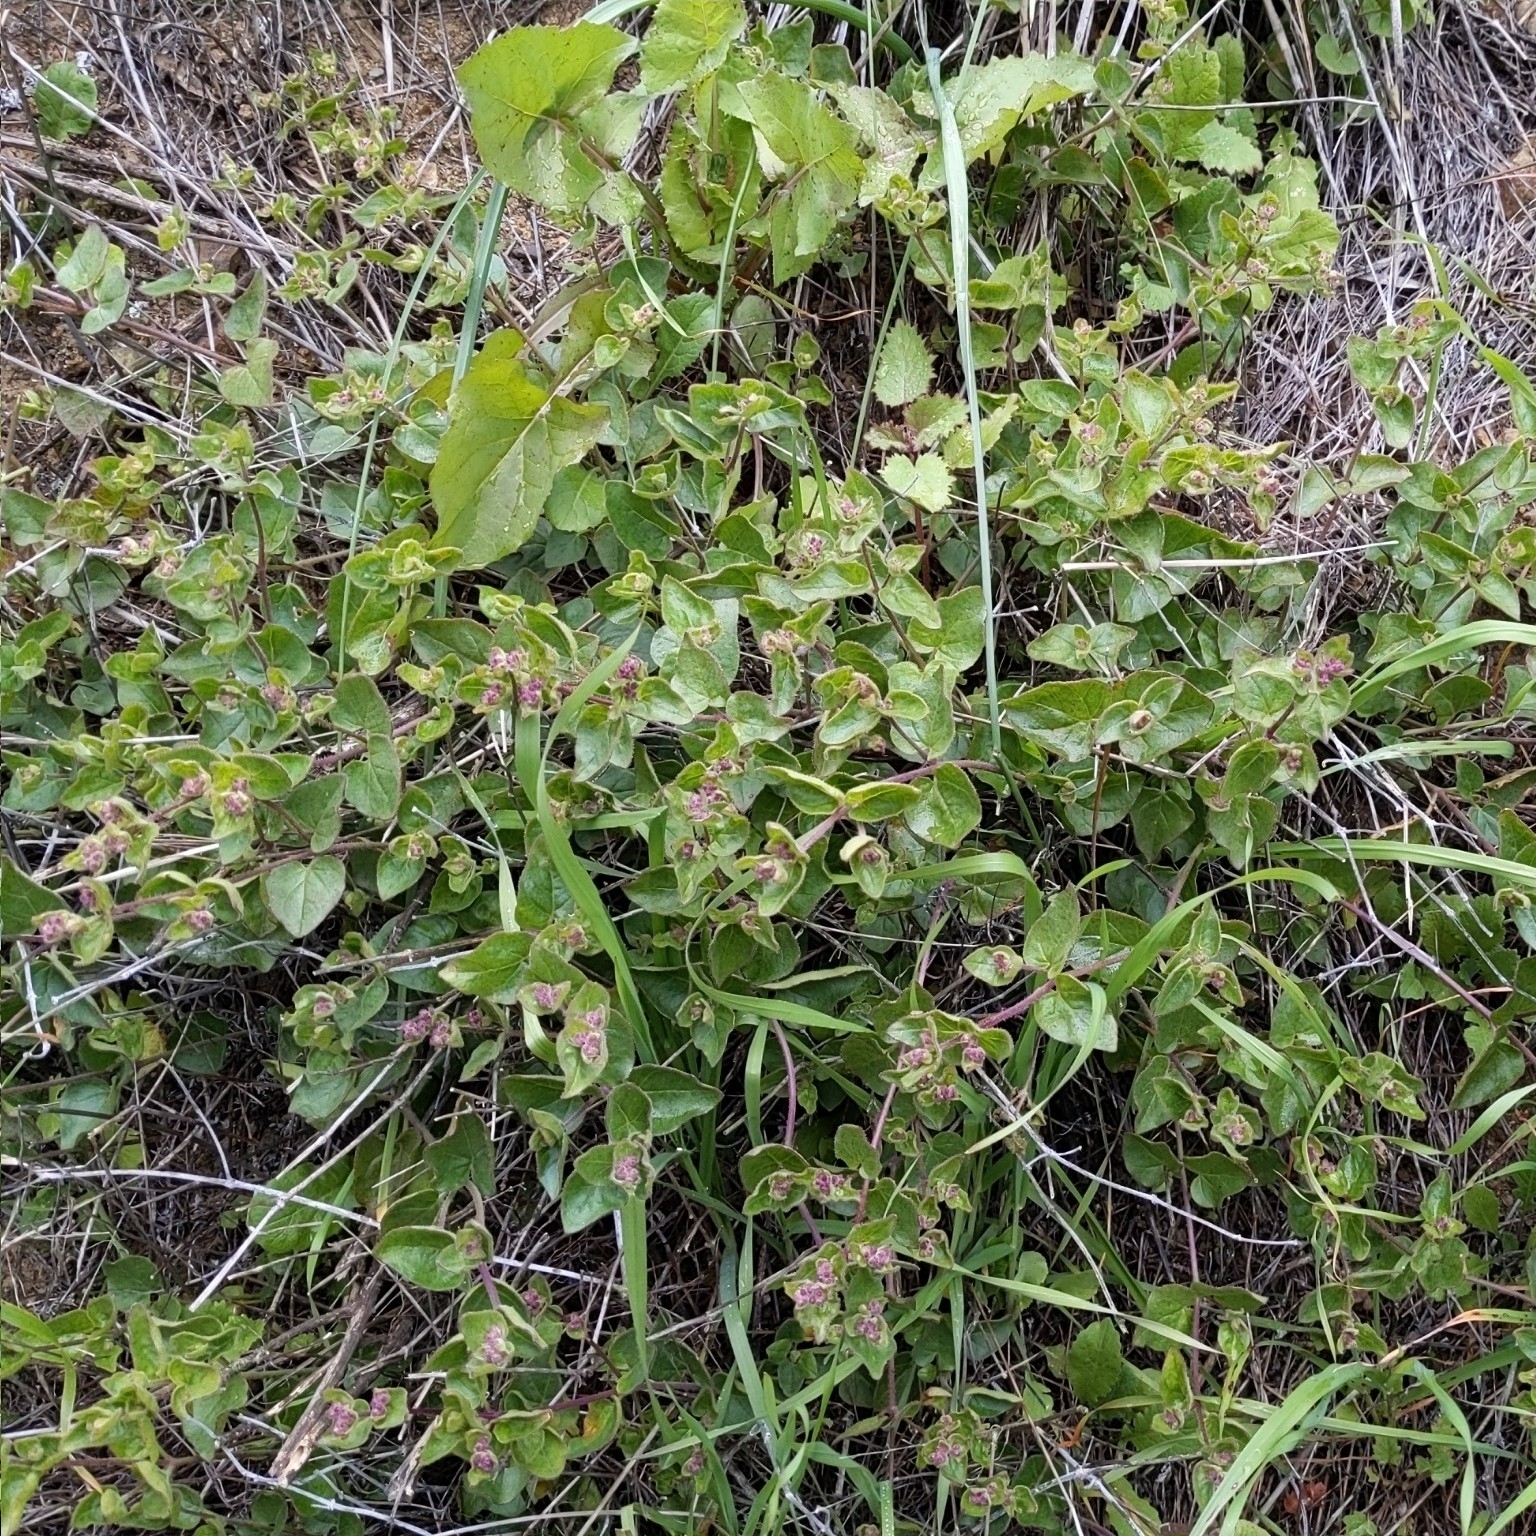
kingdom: Plantae
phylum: Tracheophyta
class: Magnoliopsida
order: Caryophyllales
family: Nyctaginaceae
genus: Mirabilis
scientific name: Mirabilis laevis
